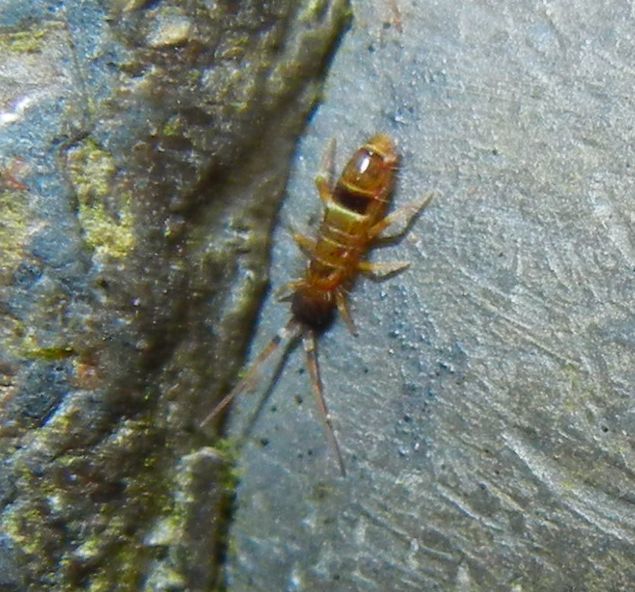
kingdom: Animalia
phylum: Arthropoda
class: Collembola
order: Entomobryomorpha
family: Orchesellidae
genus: Orchesella
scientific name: Orchesella cincta
